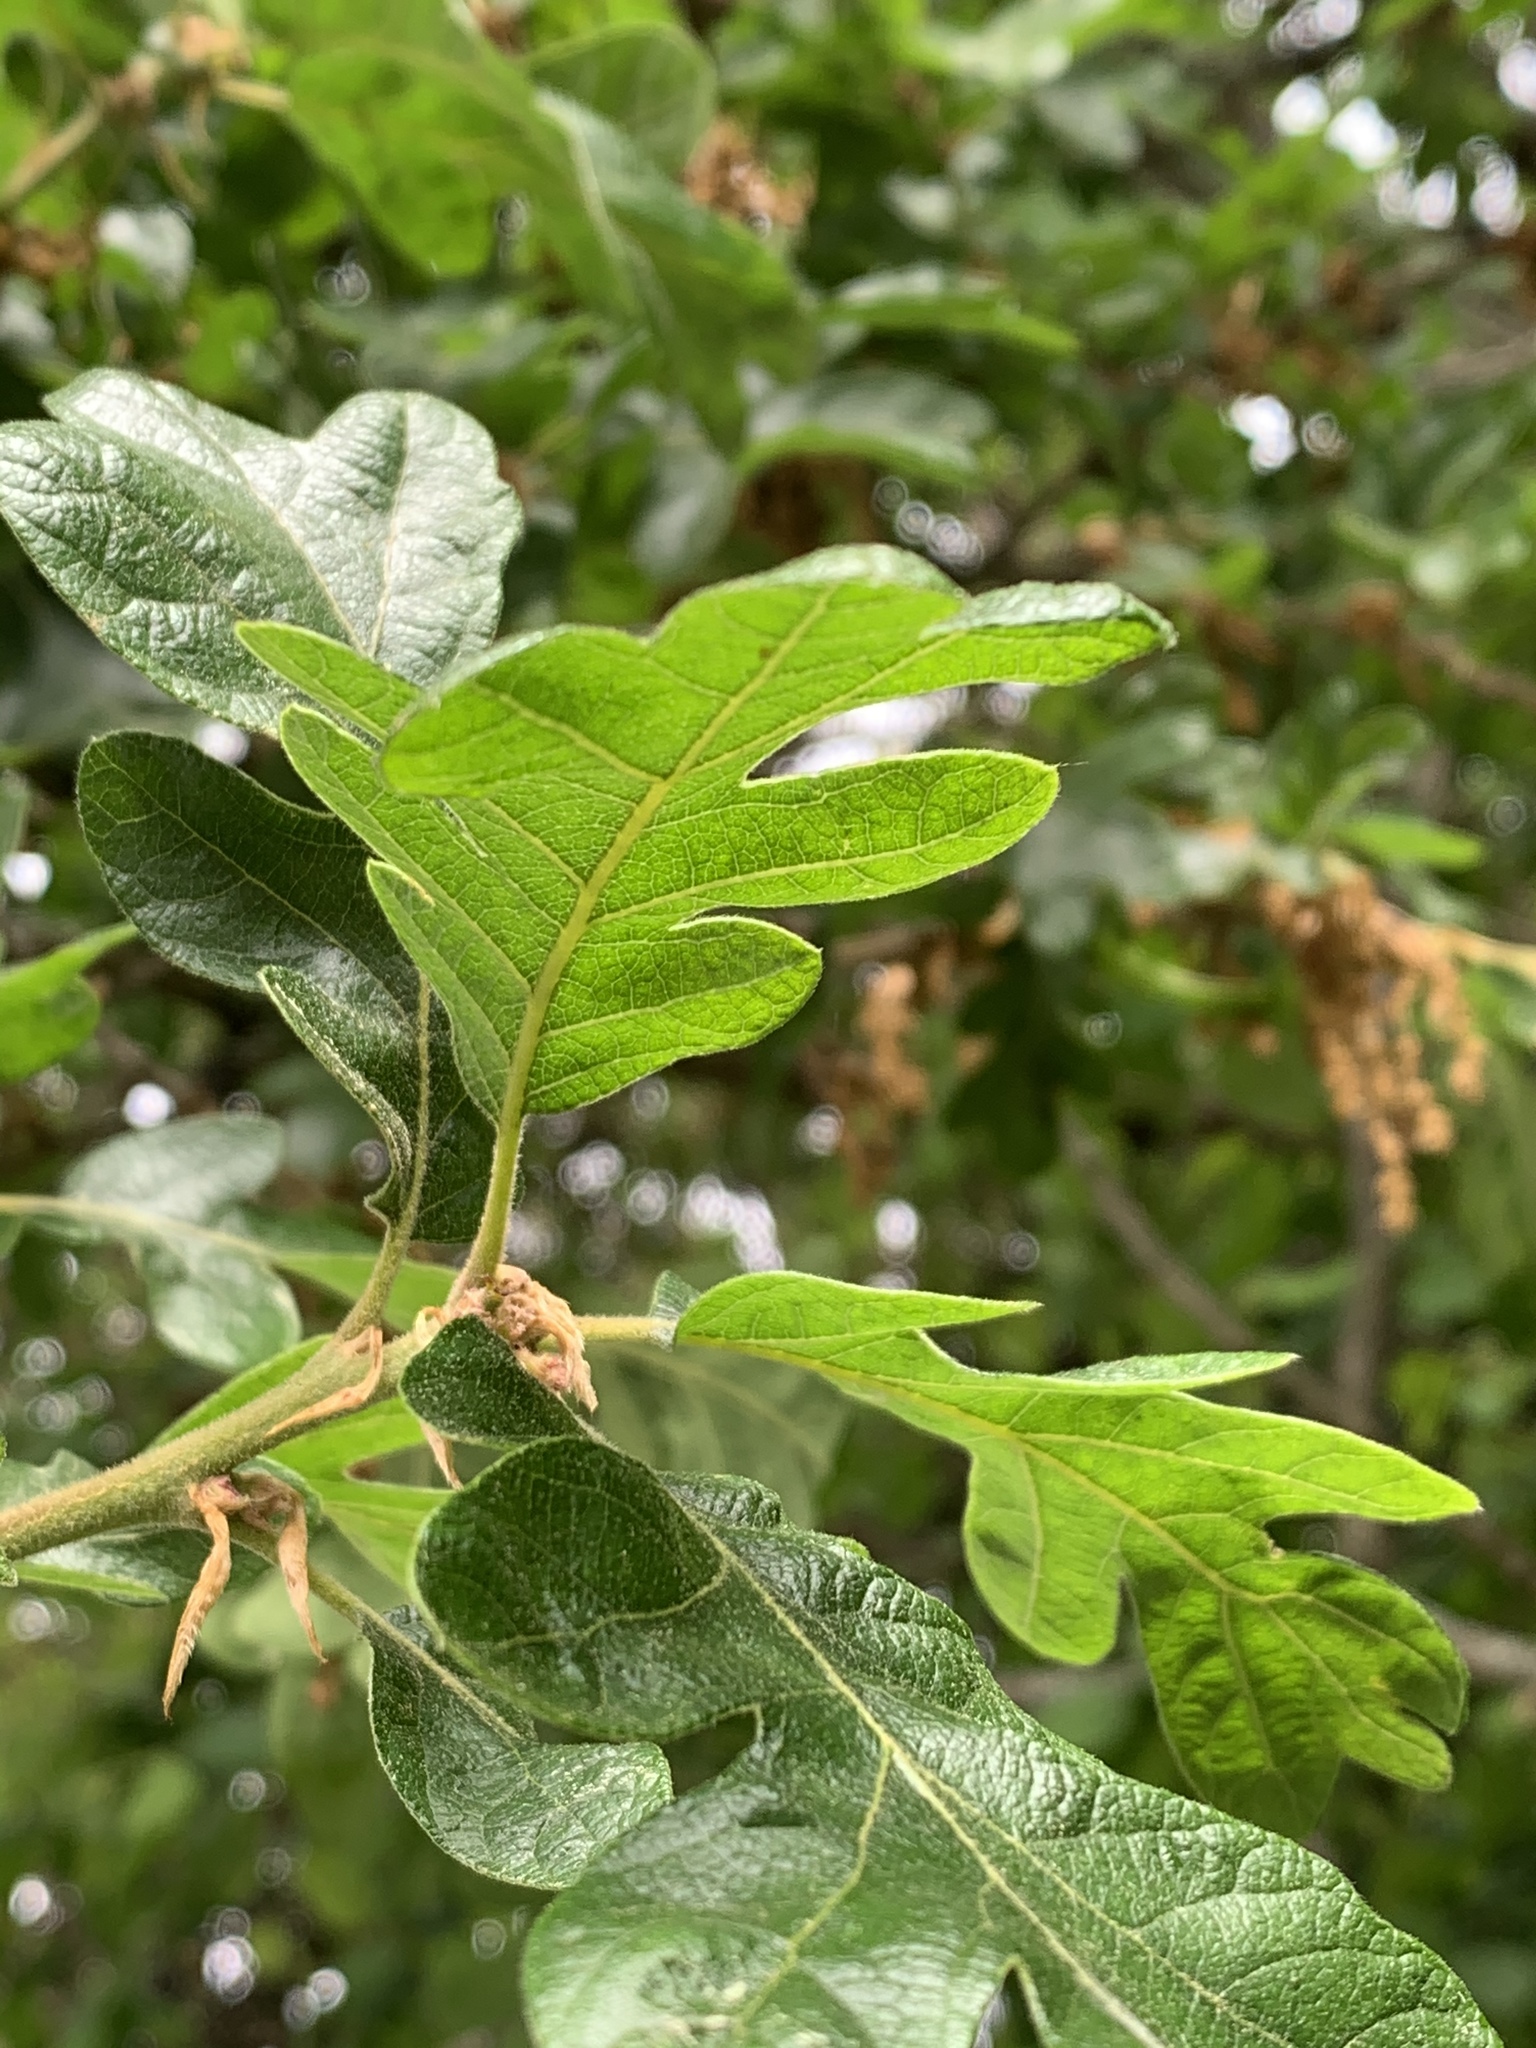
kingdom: Plantae
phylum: Tracheophyta
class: Magnoliopsida
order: Fagales
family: Fagaceae
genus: Quercus
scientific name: Quercus garryana
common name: Garry oak
